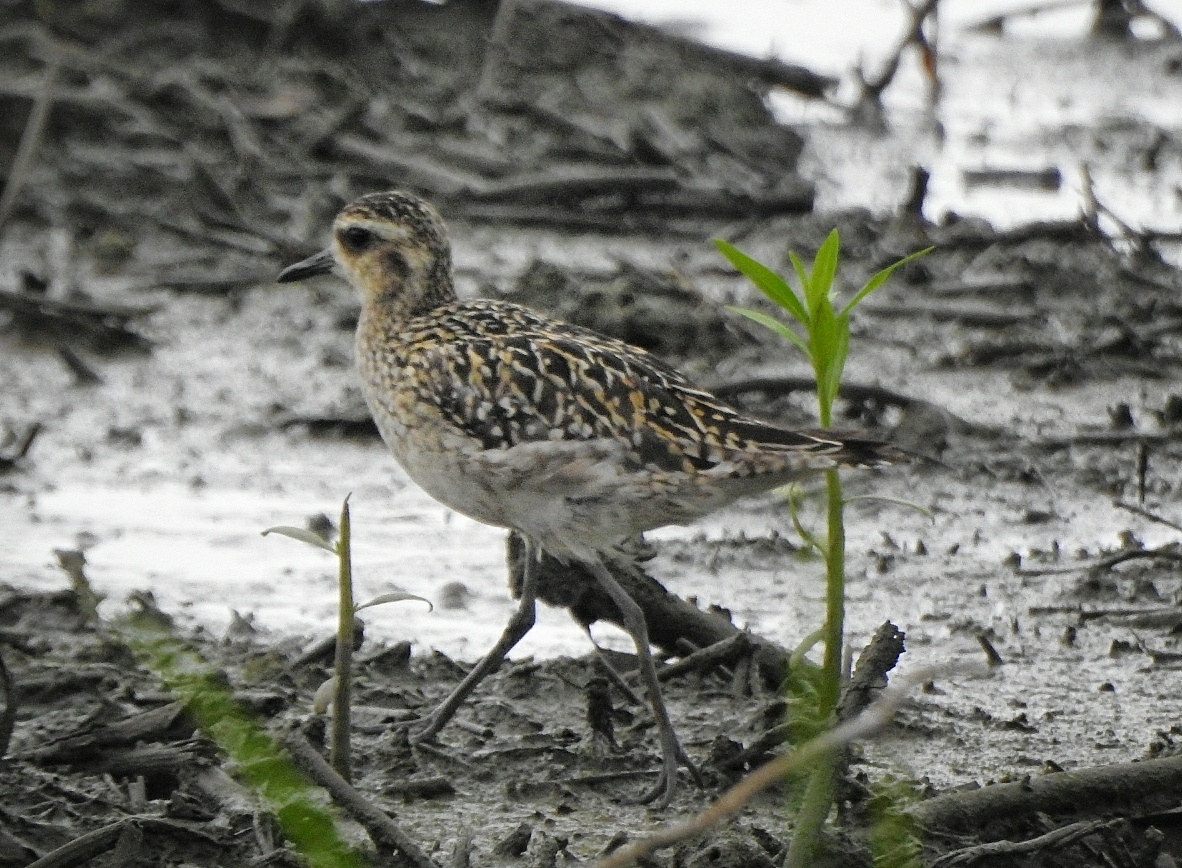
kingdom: Animalia
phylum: Chordata
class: Aves
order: Charadriiformes
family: Charadriidae
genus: Pluvialis
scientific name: Pluvialis fulva
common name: Pacific golden plover
